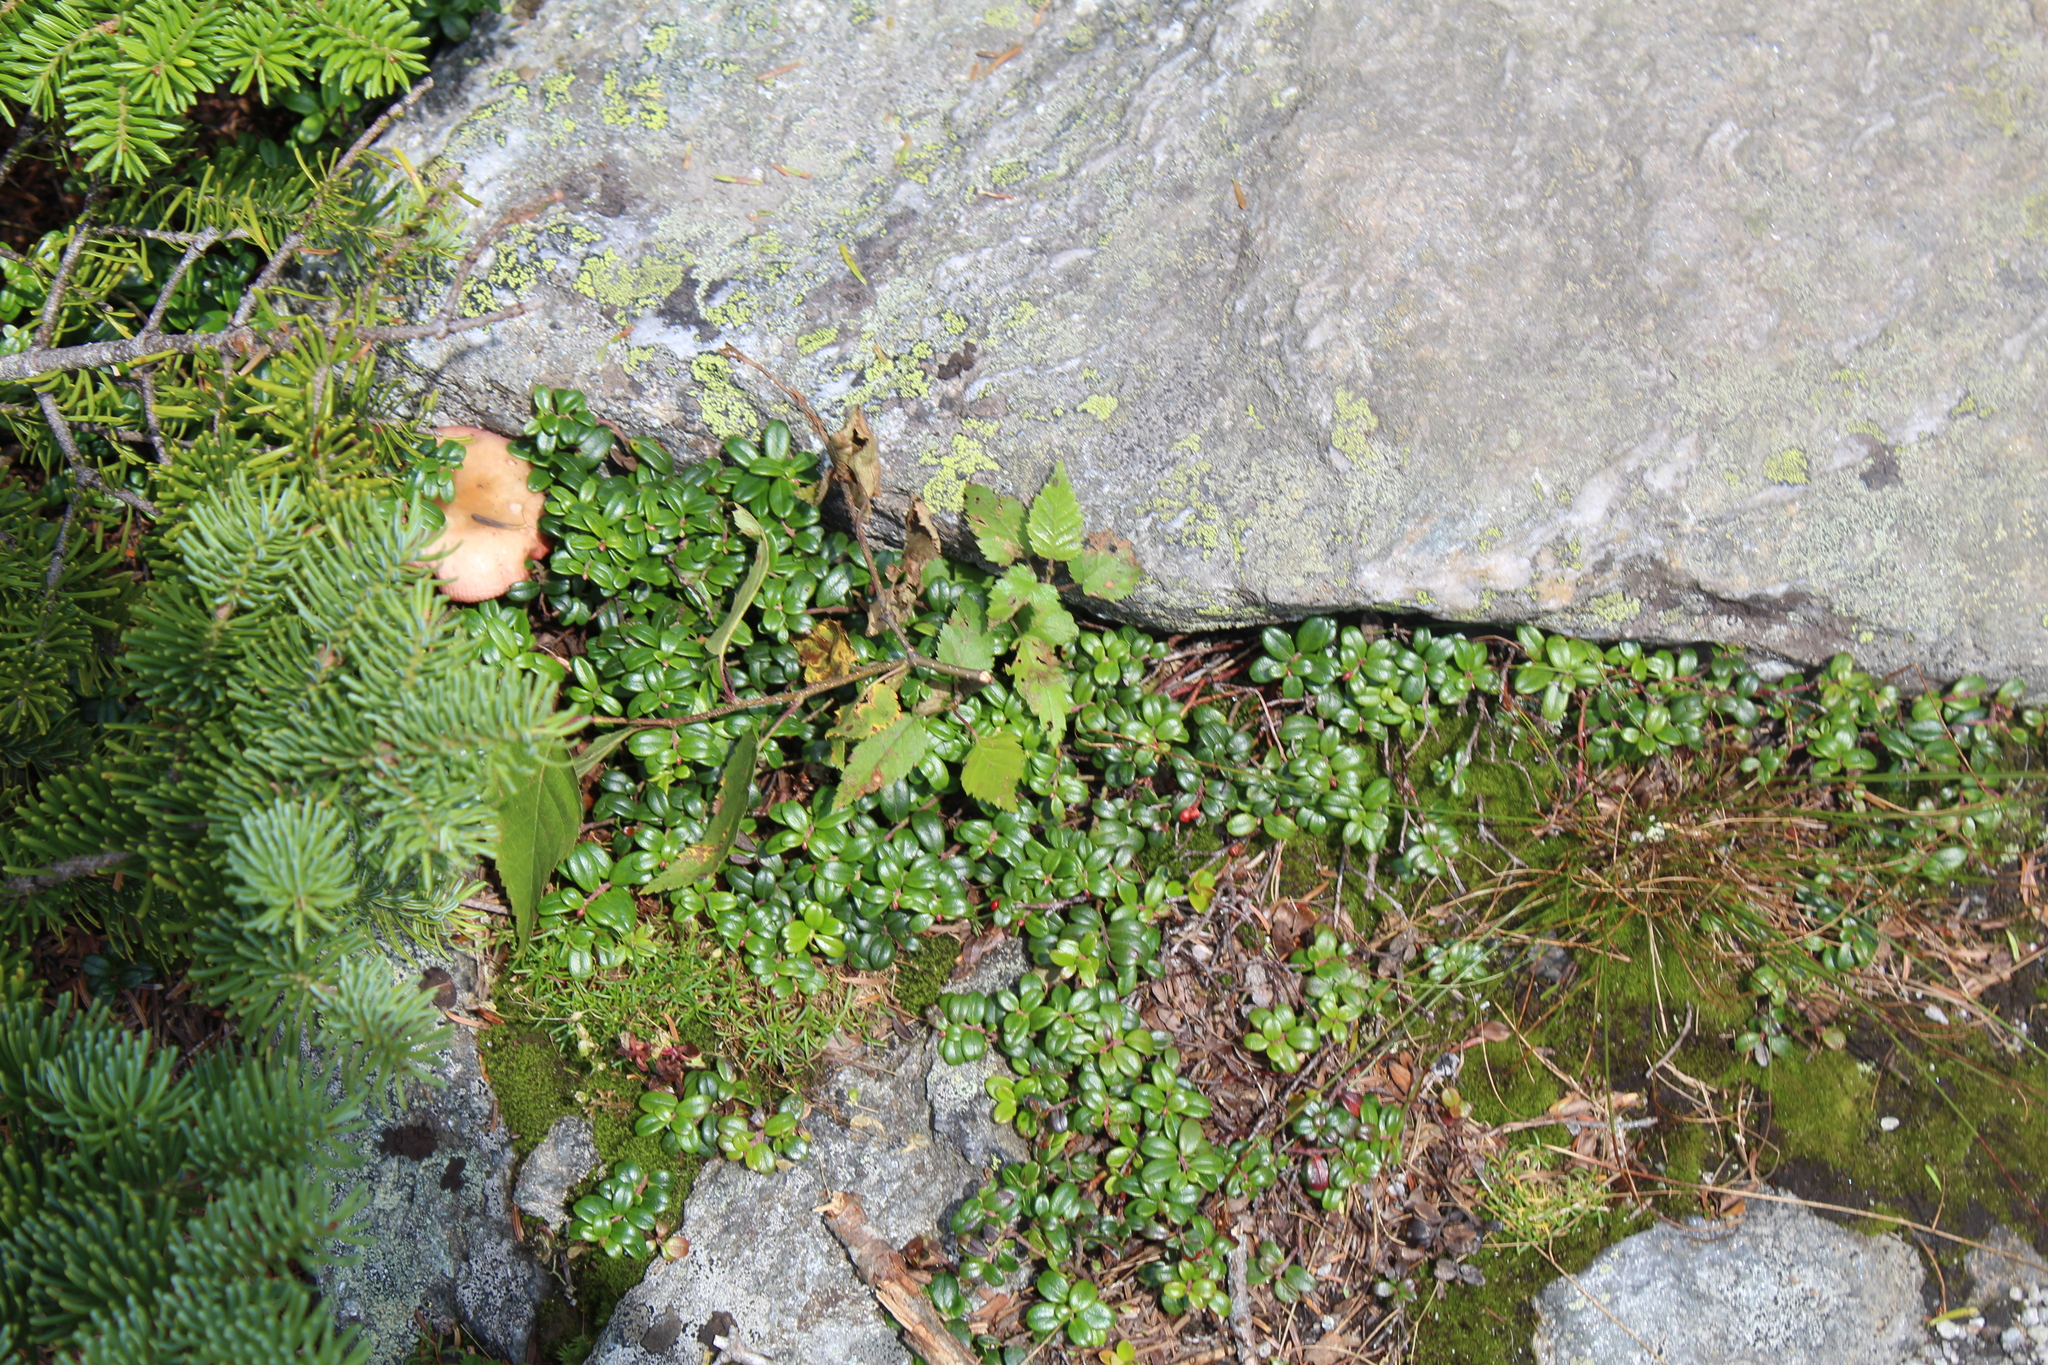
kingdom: Plantae
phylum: Tracheophyta
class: Magnoliopsida
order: Ericales
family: Ericaceae
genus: Vaccinium
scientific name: Vaccinium vitis-idaea
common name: Cowberry
